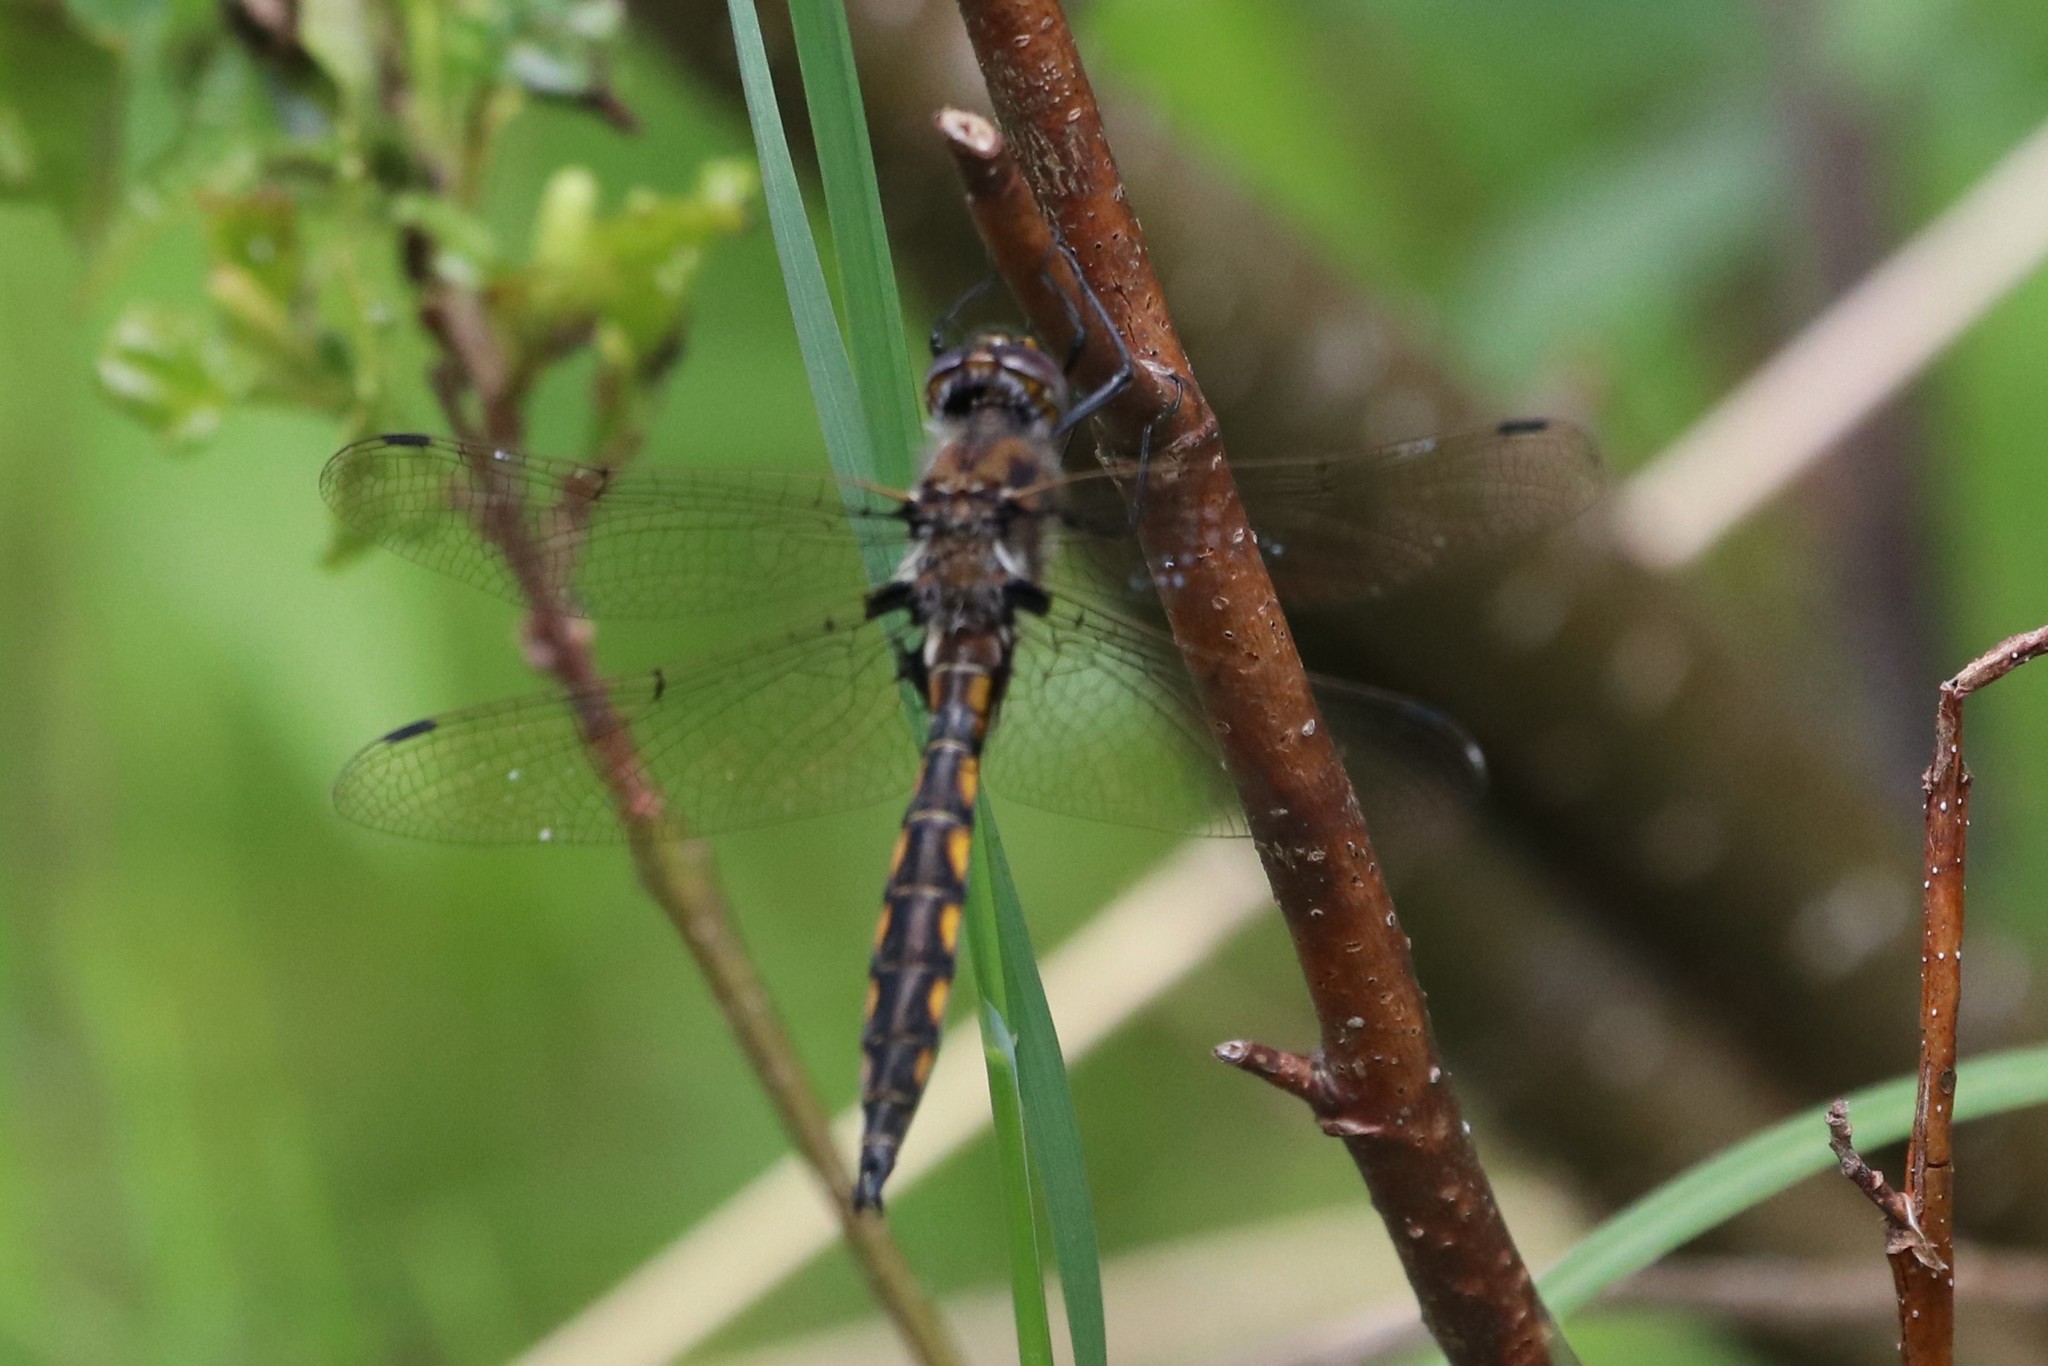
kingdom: Animalia
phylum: Arthropoda
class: Insecta
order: Odonata
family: Corduliidae
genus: Epitheca
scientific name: Epitheca canis
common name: Beaverpond baskettail
